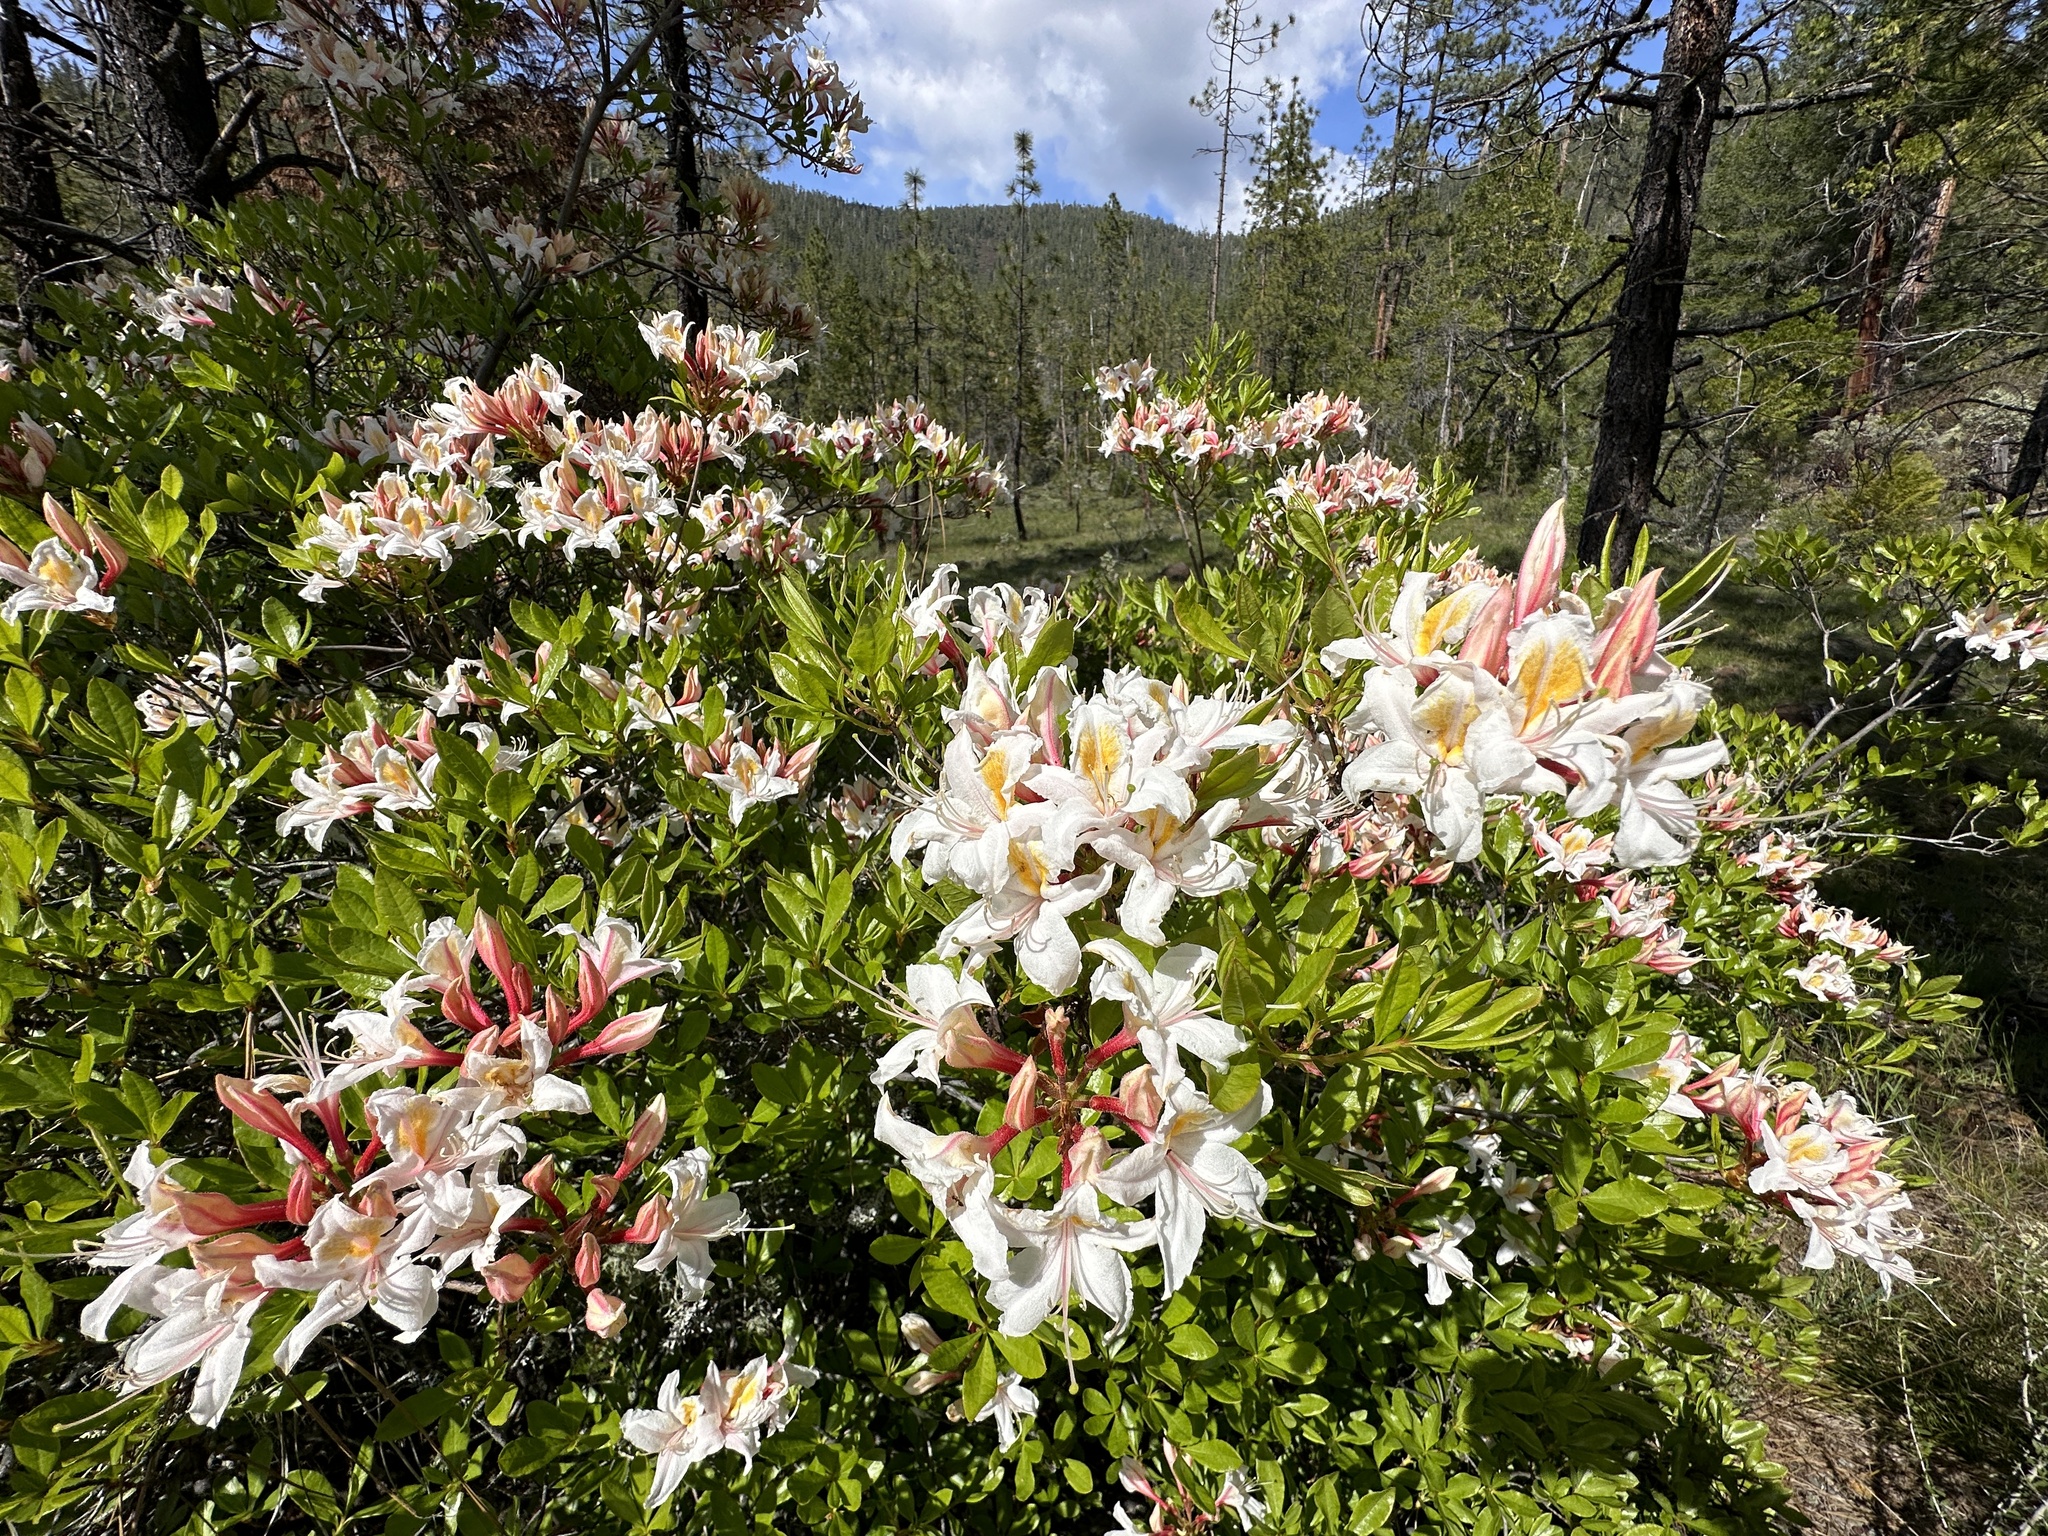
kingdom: Plantae
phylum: Tracheophyta
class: Magnoliopsida
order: Ericales
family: Ericaceae
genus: Rhododendron
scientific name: Rhododendron occidentale
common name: Western azalea
